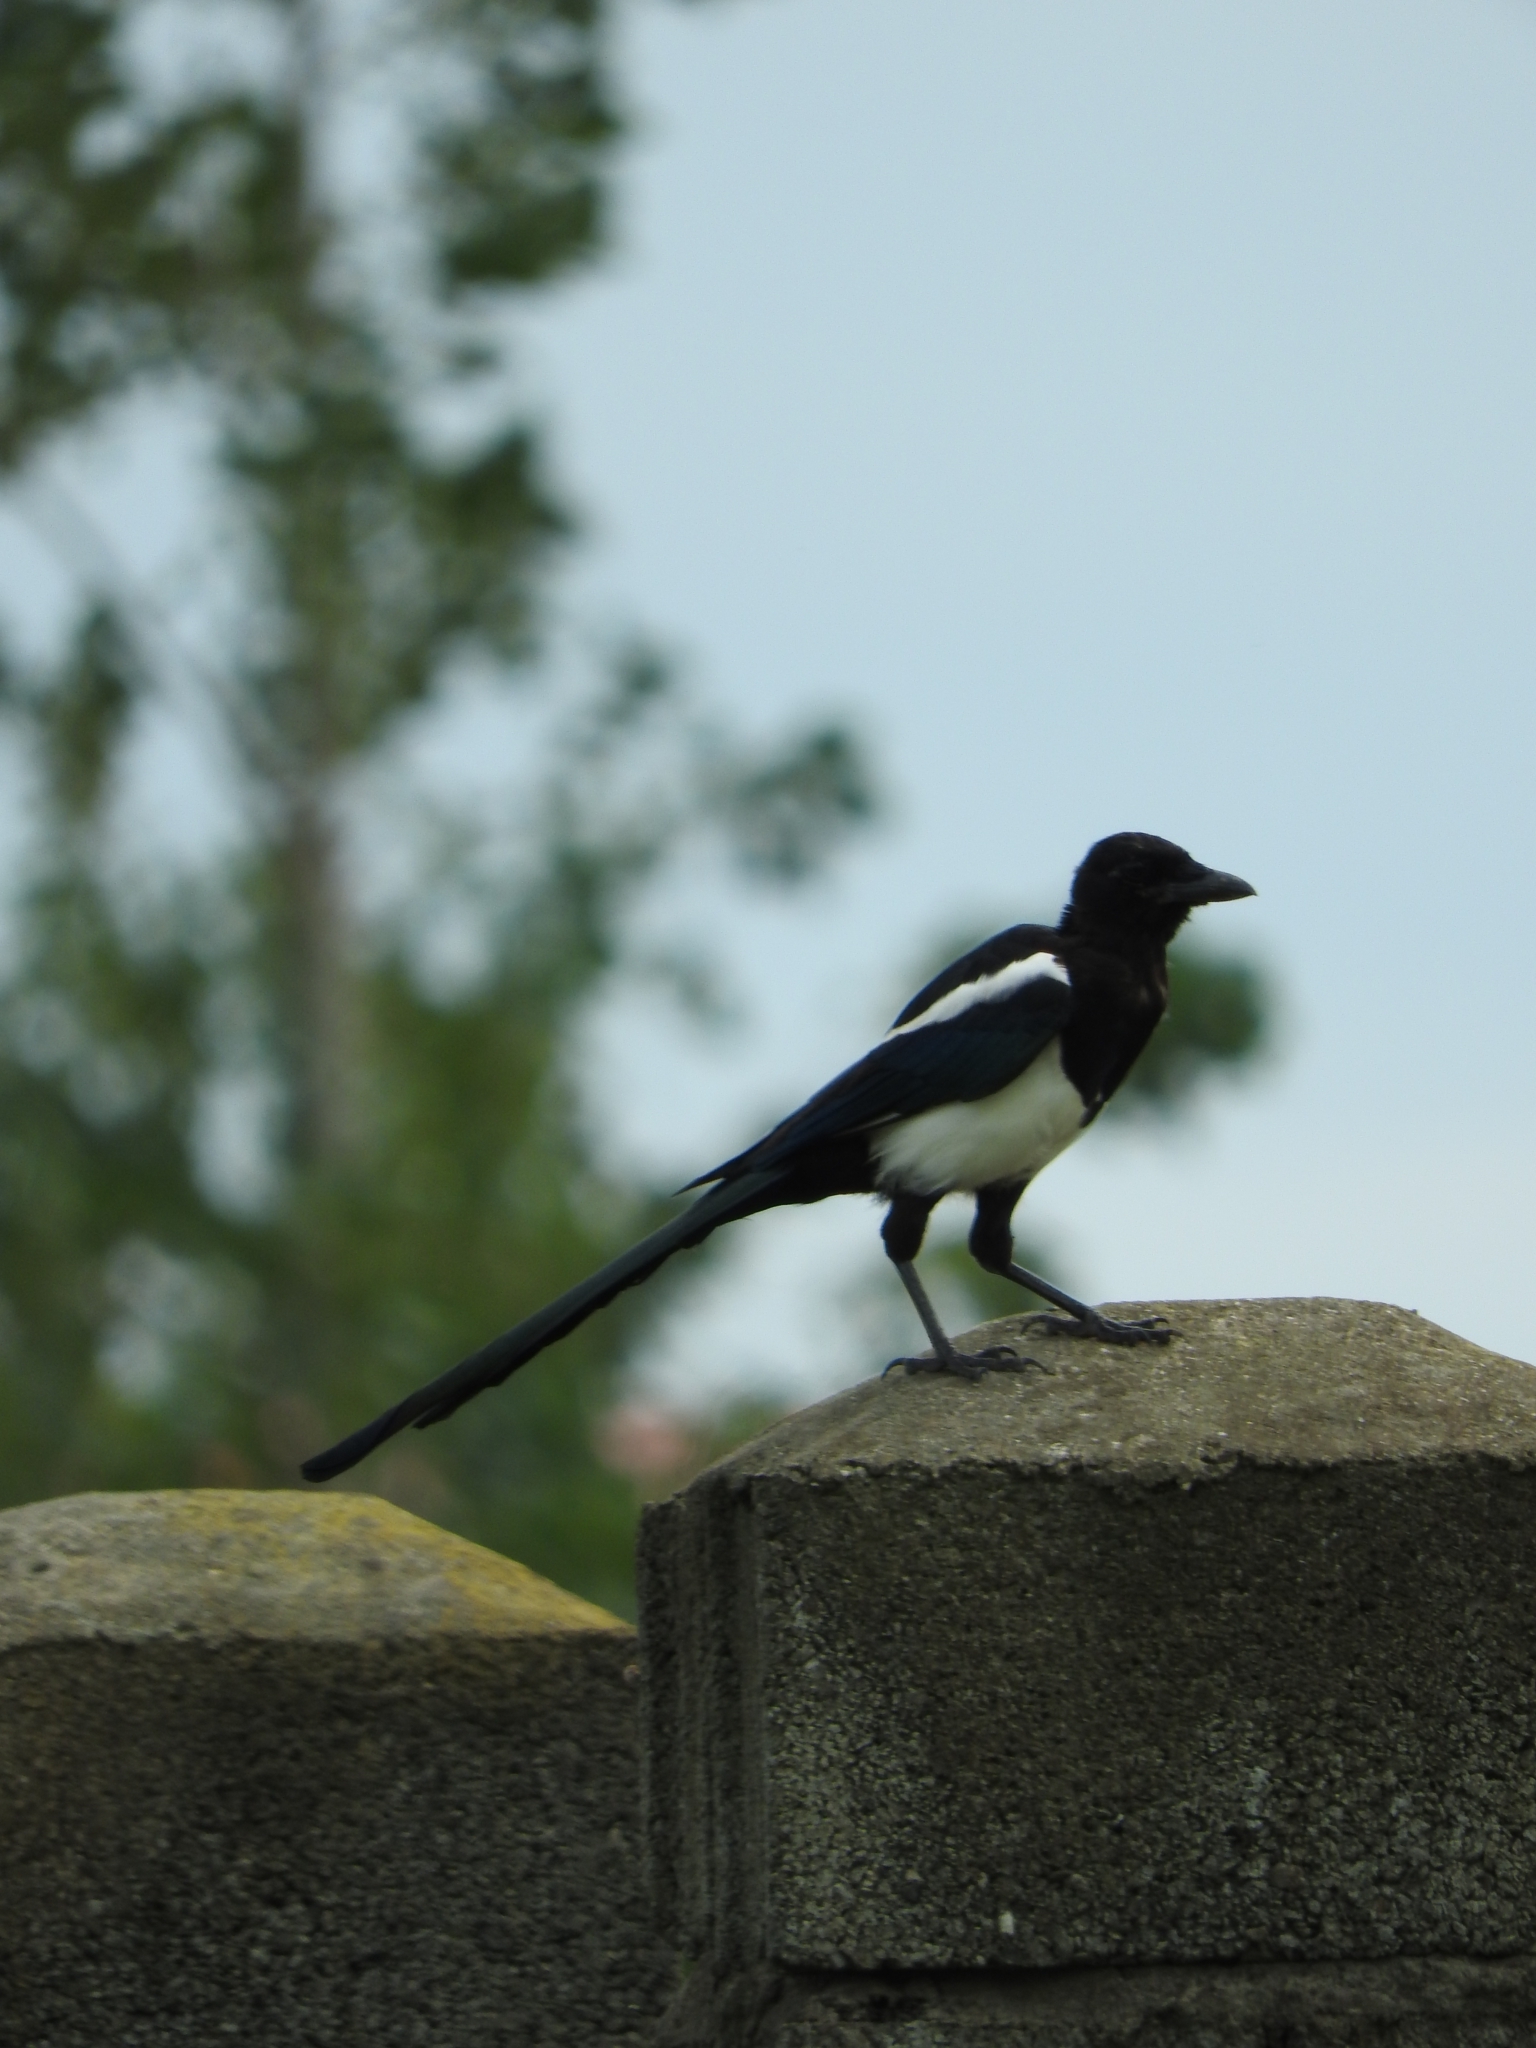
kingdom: Animalia
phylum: Chordata
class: Aves
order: Passeriformes
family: Corvidae
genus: Pica
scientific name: Pica pica
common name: Eurasian magpie
